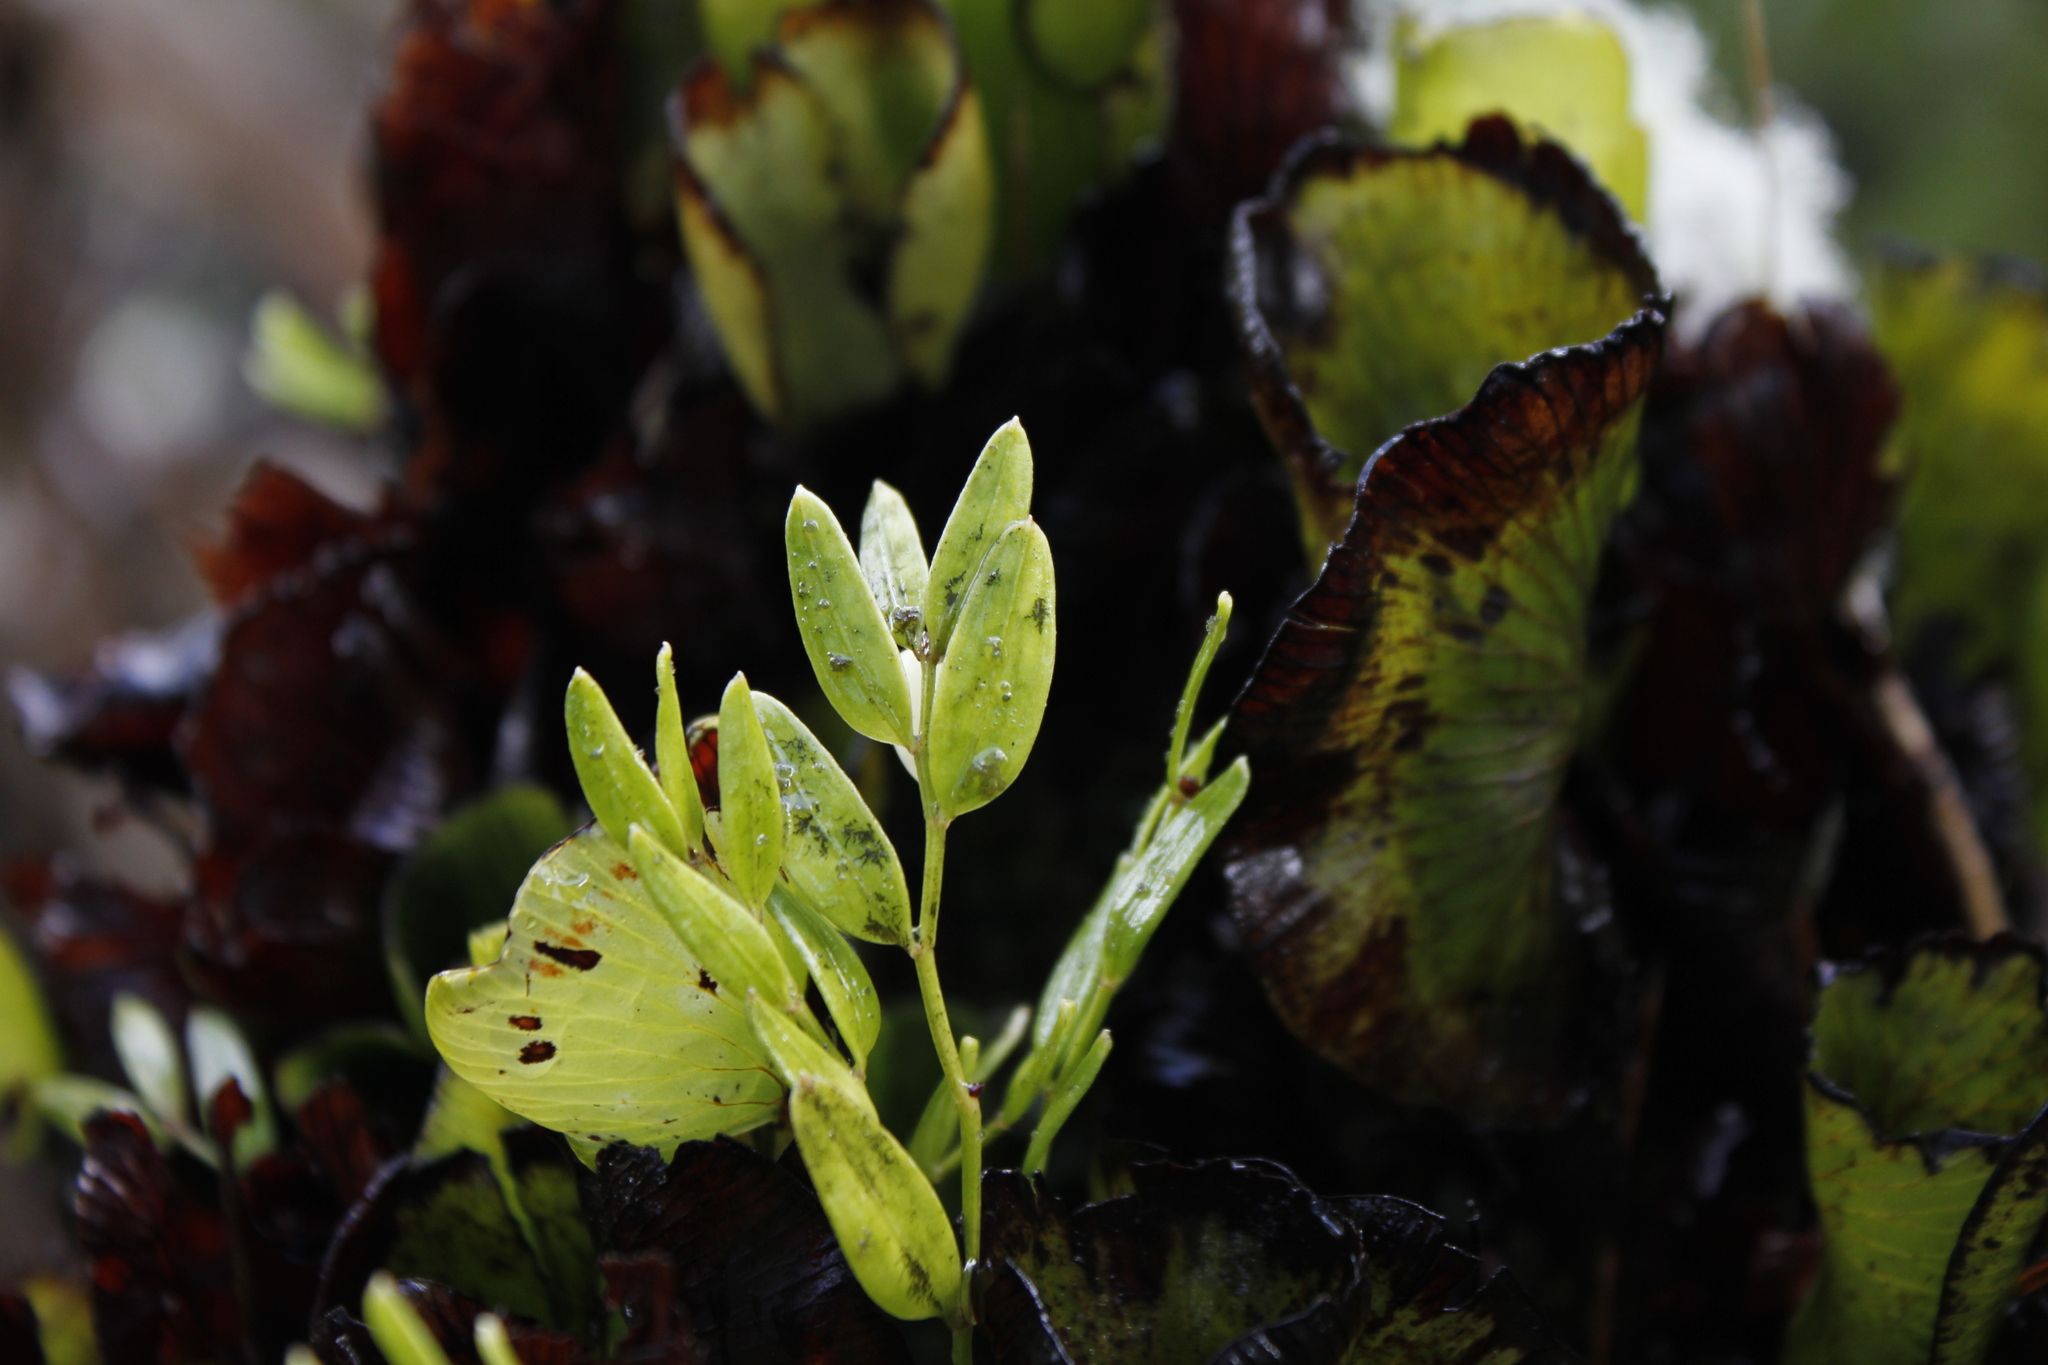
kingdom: Plantae
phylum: Tracheophyta
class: Liliopsida
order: Liliales
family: Alstroemeriaceae
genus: Luzuriaga
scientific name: Luzuriaga parviflora
